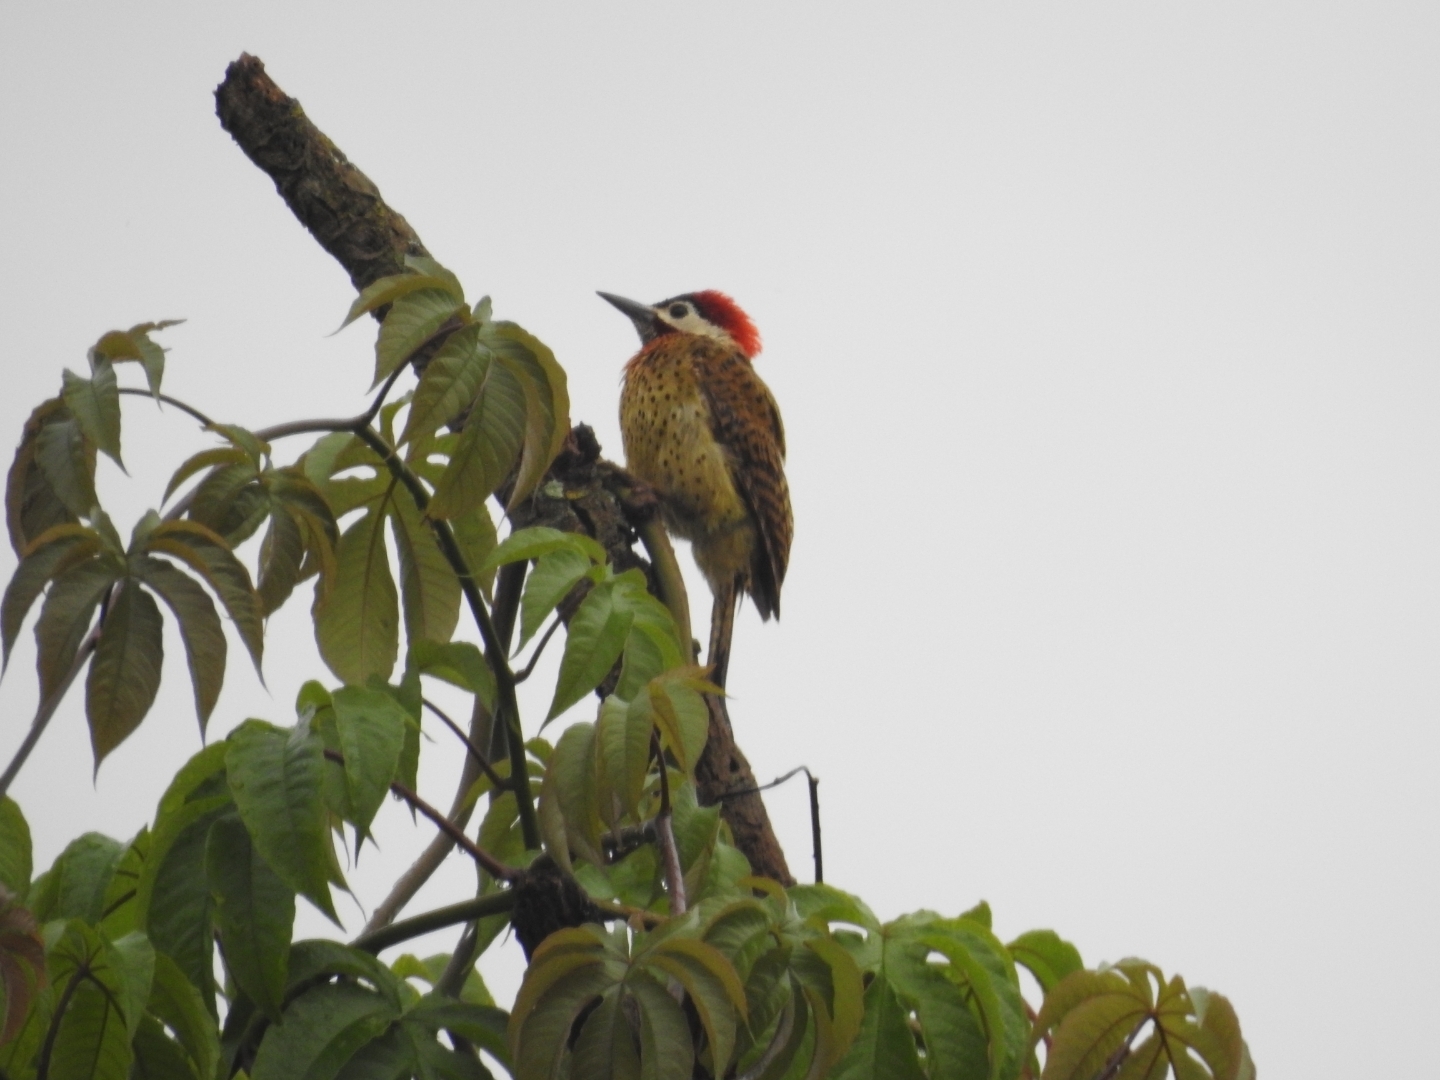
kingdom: Animalia
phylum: Chordata
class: Aves
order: Piciformes
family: Picidae
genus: Colaptes
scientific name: Colaptes punctigula
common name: Spot-breasted woodpecker
